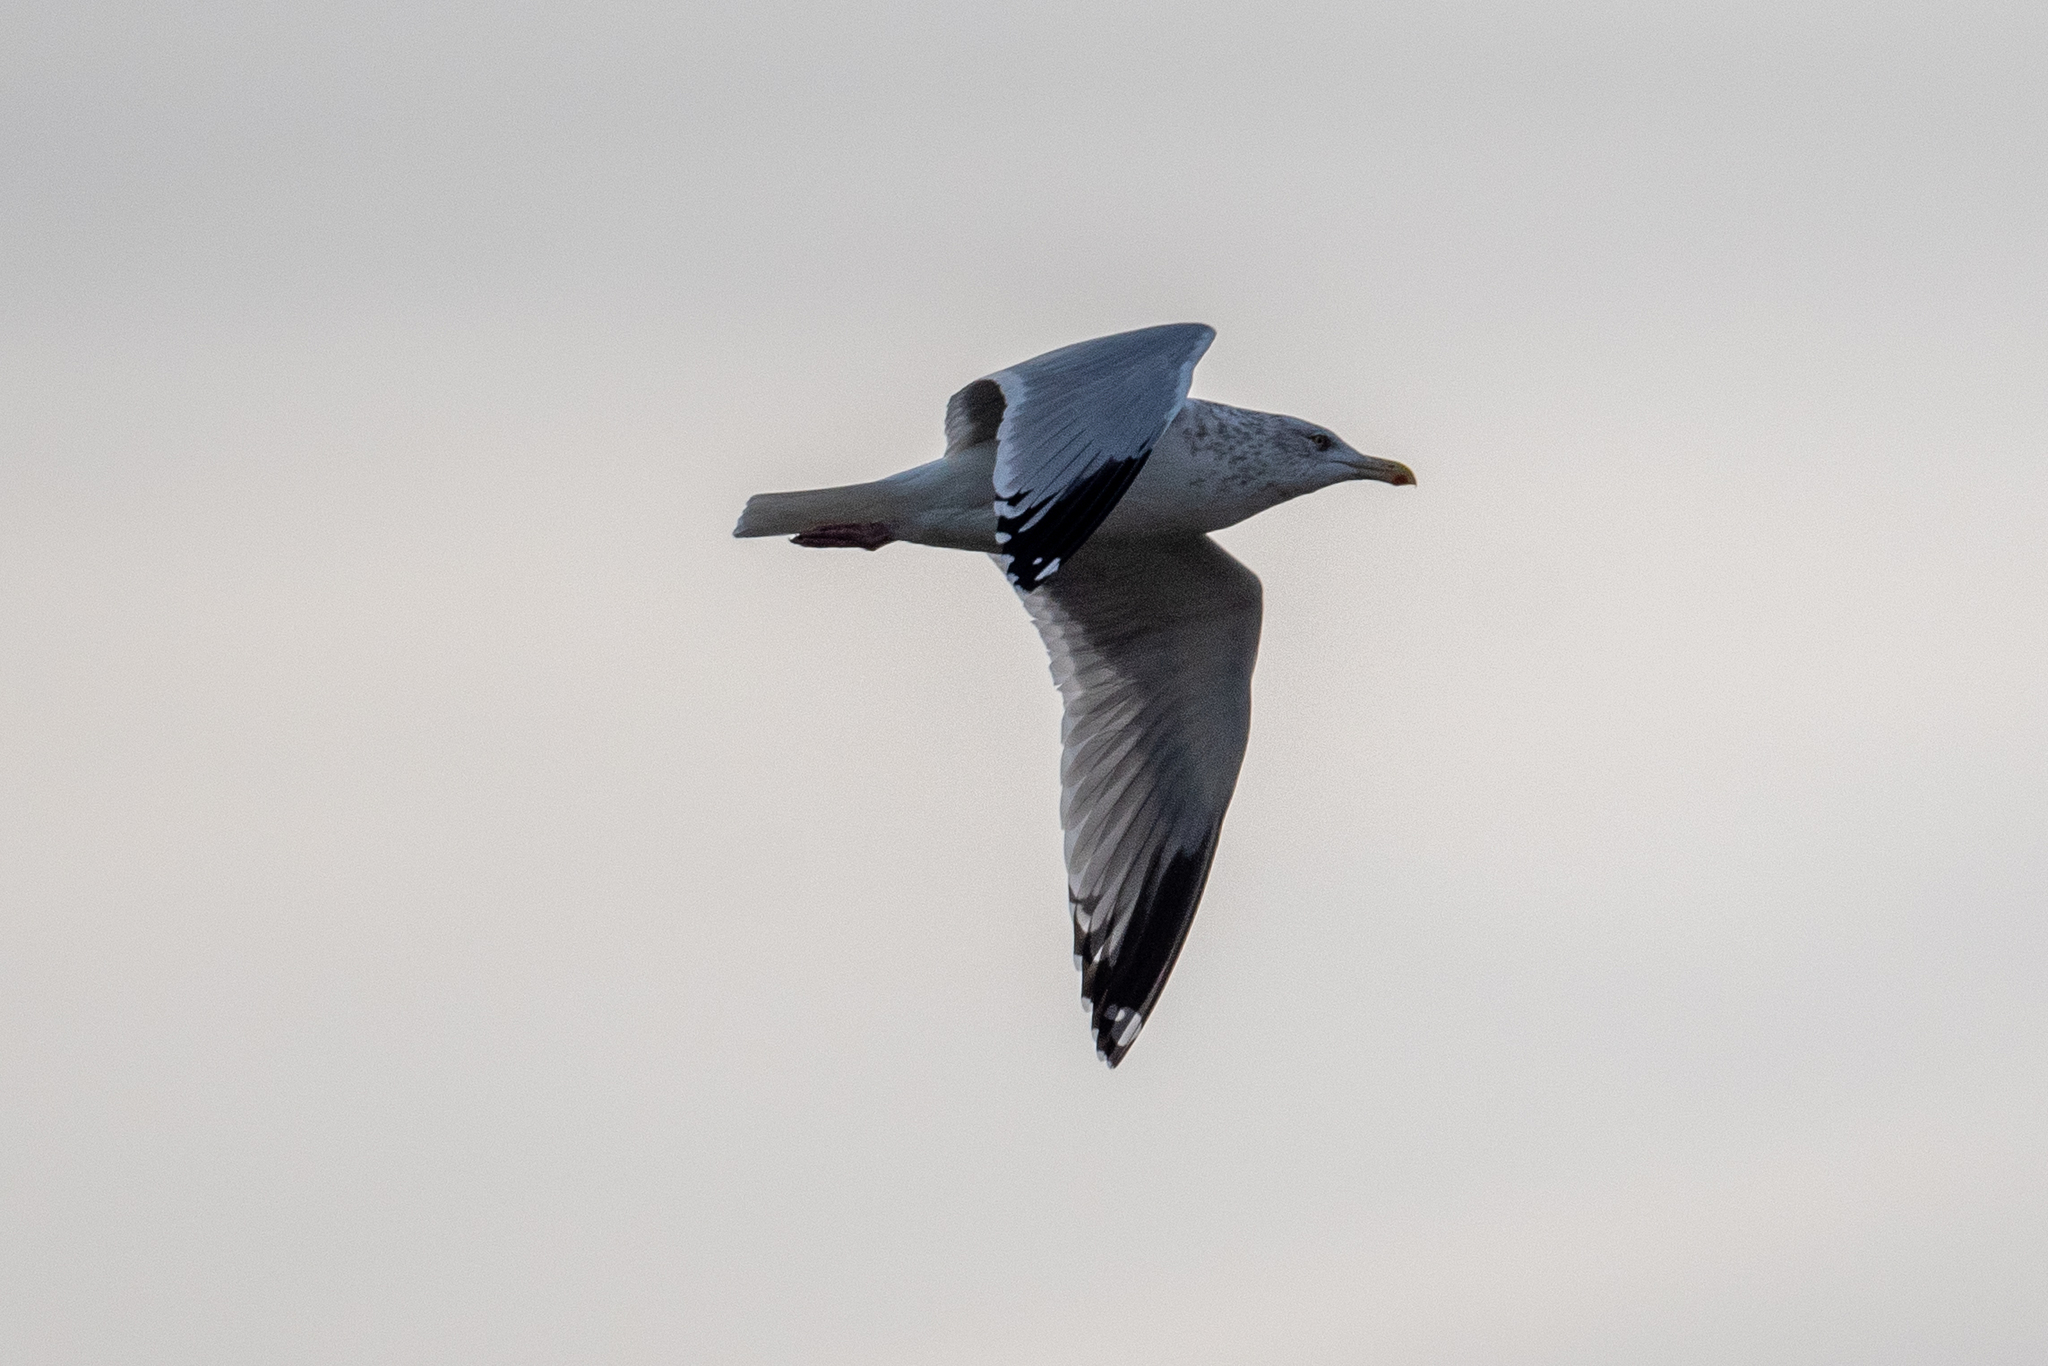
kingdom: Animalia
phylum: Chordata
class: Aves
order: Charadriiformes
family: Laridae
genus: Larus
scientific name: Larus argentatus
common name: Herring gull
